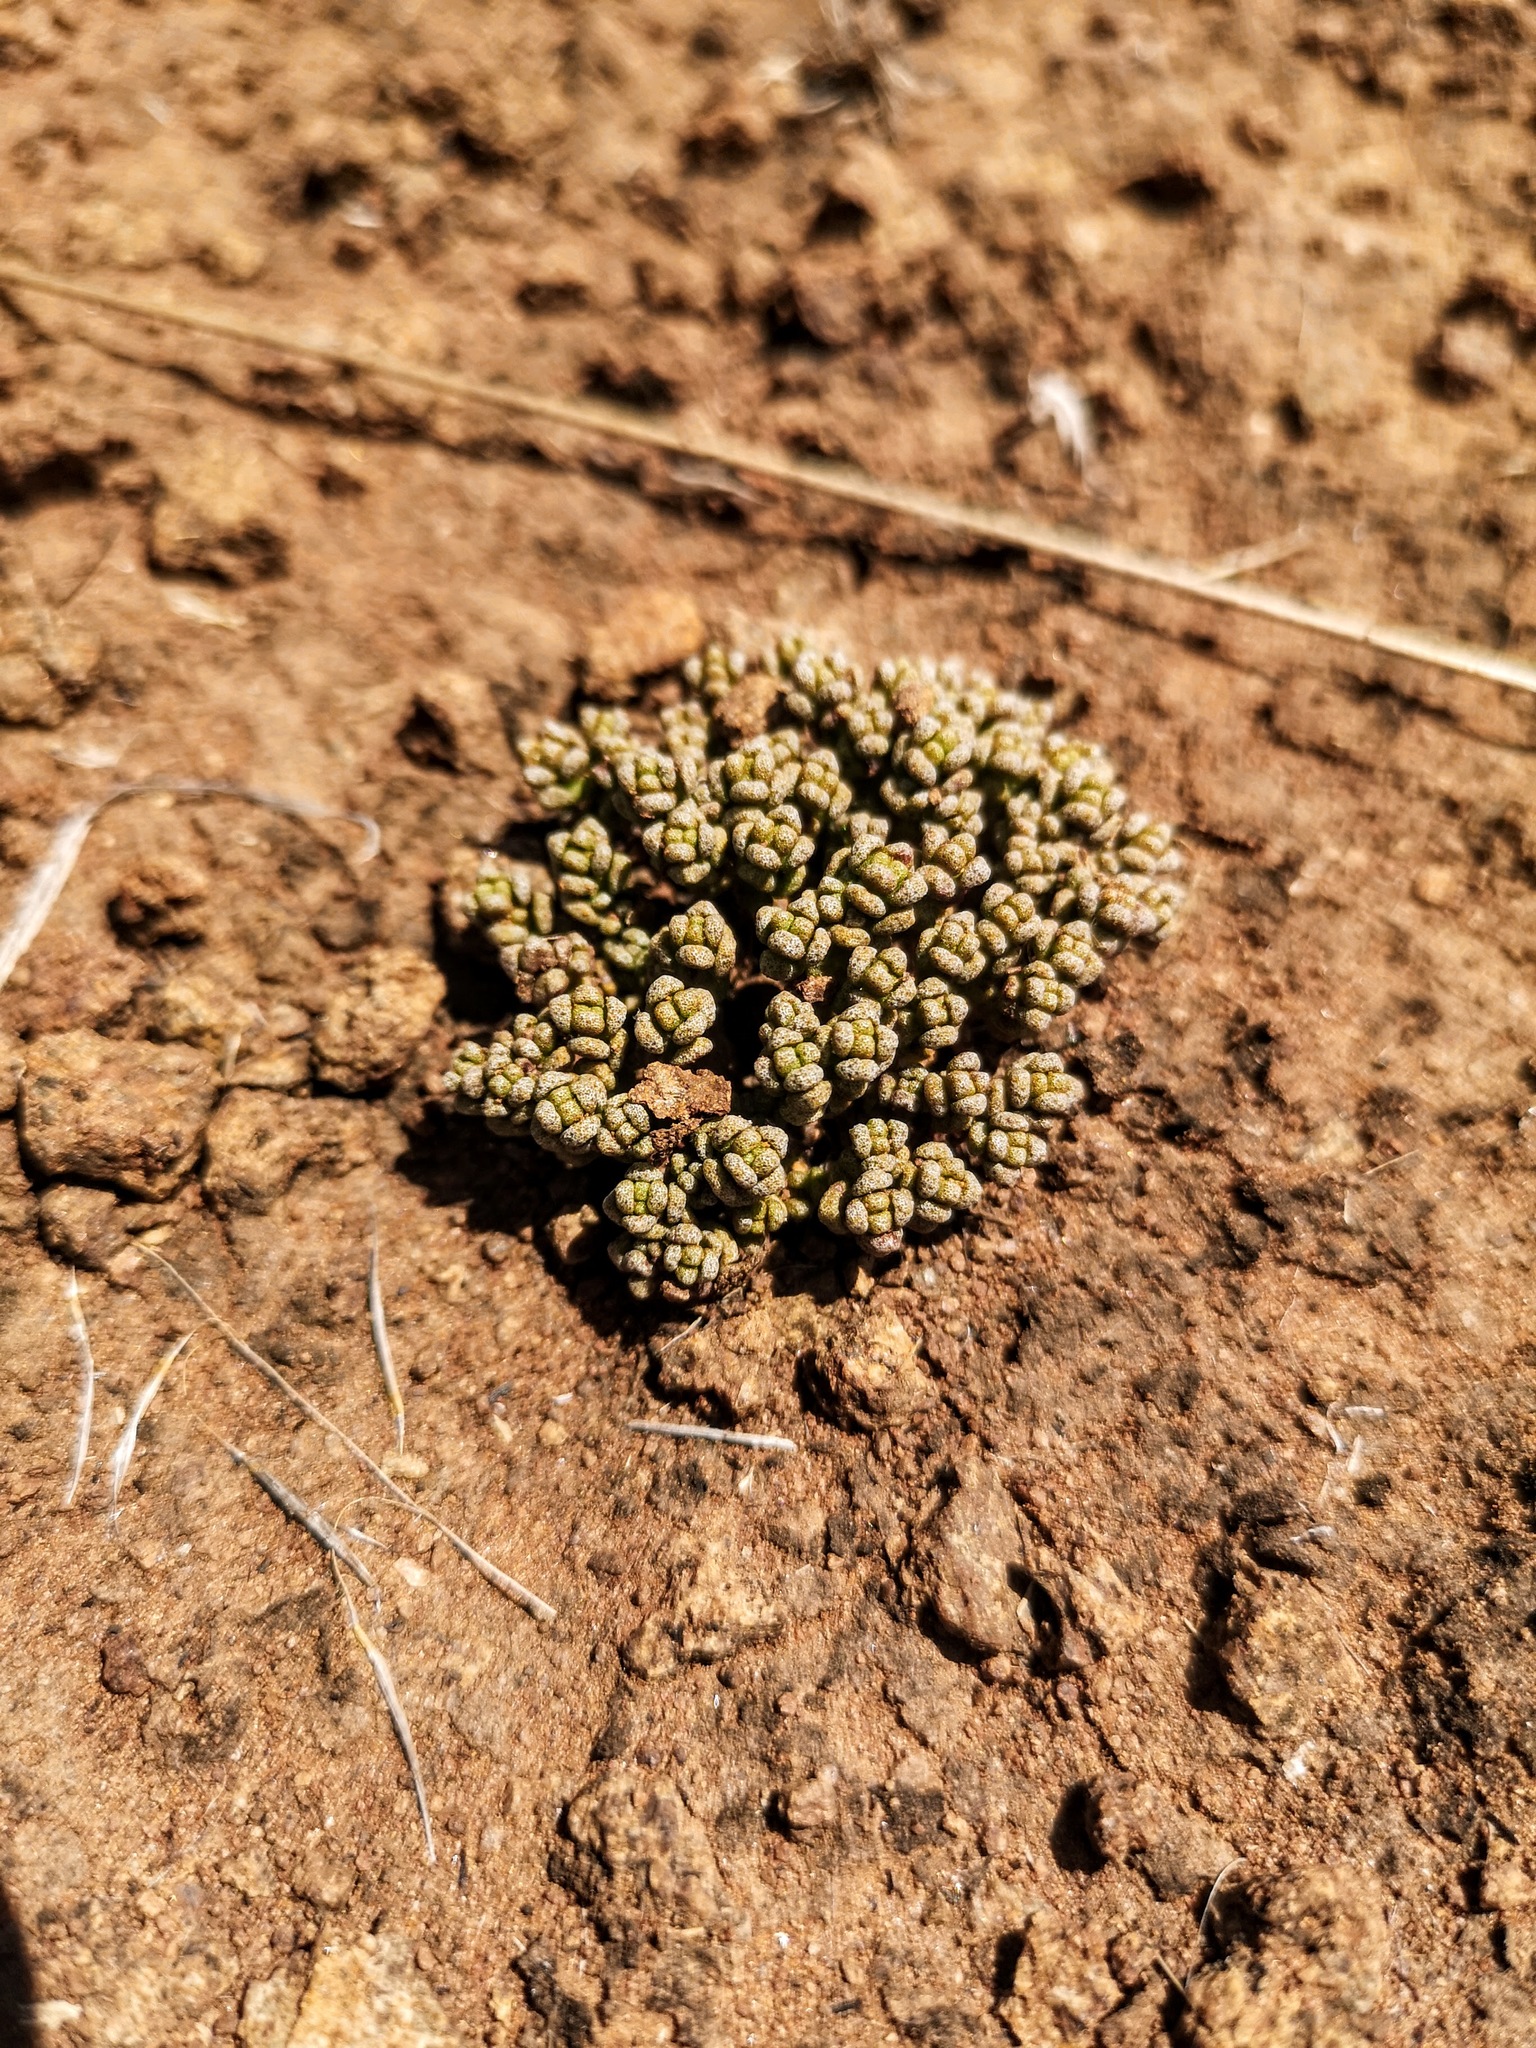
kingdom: Plantae
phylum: Tracheophyta
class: Magnoliopsida
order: Saxifragales
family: Crassulaceae
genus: Crassula
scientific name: Crassula corallina
